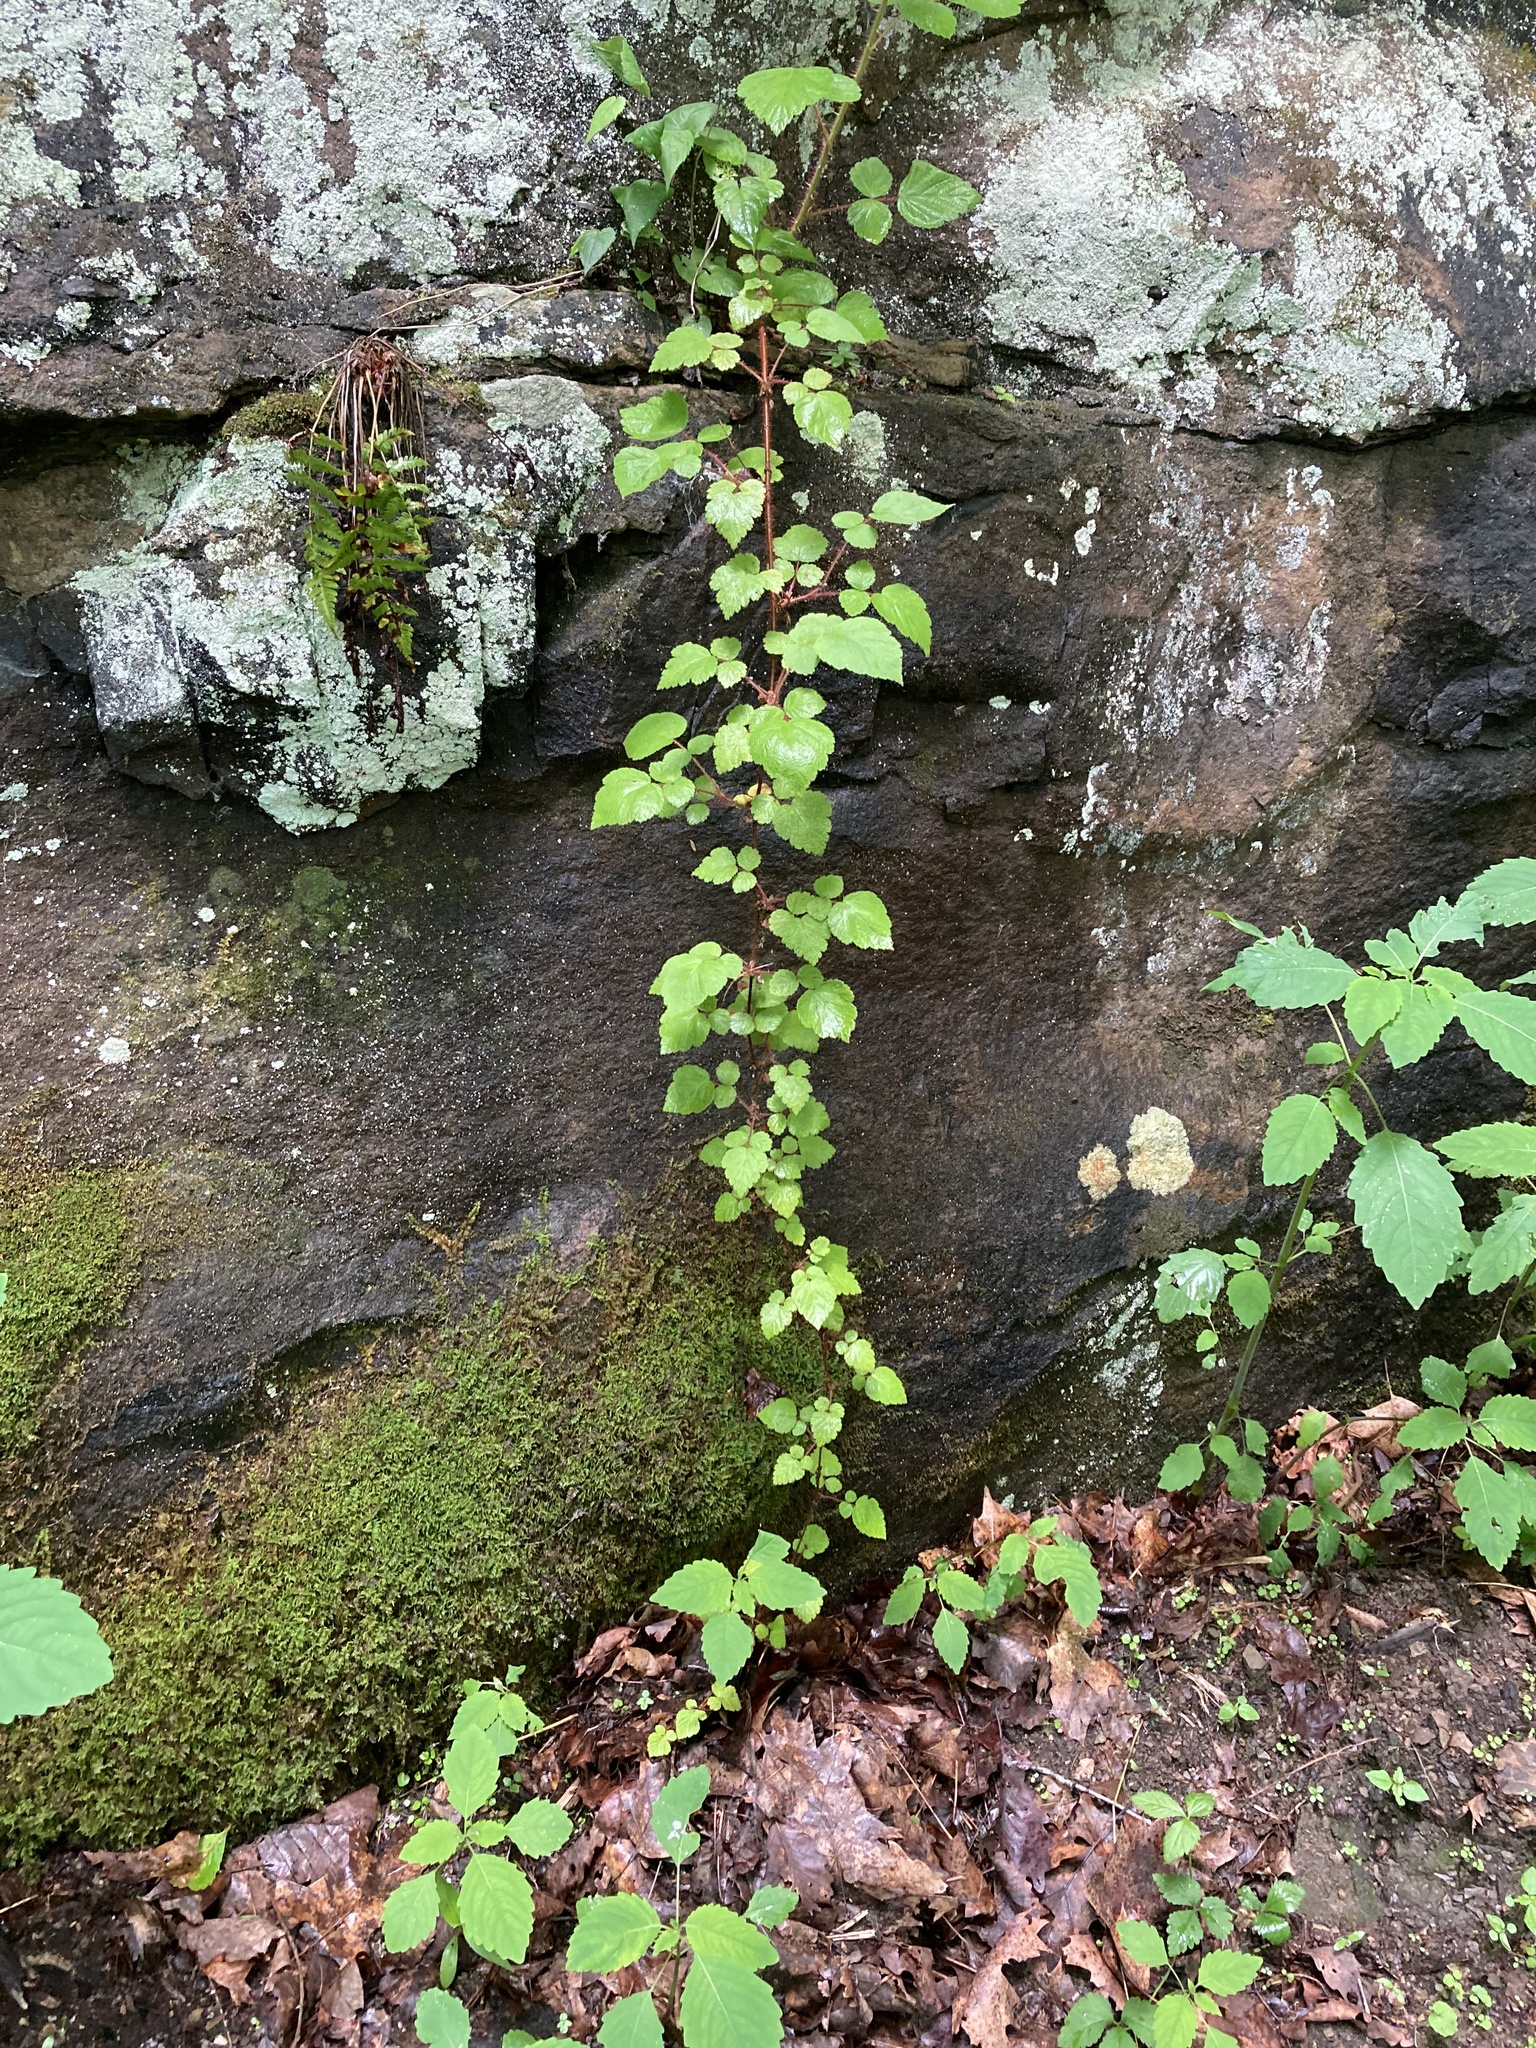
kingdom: Plantae
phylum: Tracheophyta
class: Magnoliopsida
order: Rosales
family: Rosaceae
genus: Rubus
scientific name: Rubus phoenicolasius
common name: Japanese wineberry
